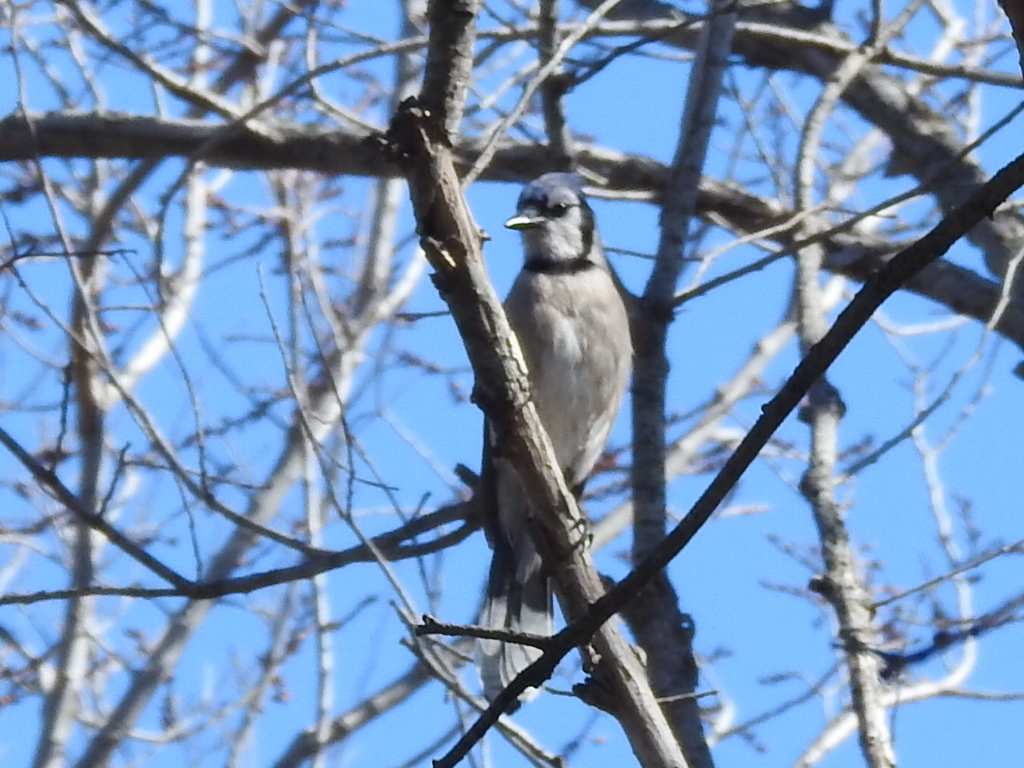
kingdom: Animalia
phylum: Chordata
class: Aves
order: Passeriformes
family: Corvidae
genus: Cyanocitta
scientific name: Cyanocitta cristata
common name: Blue jay
